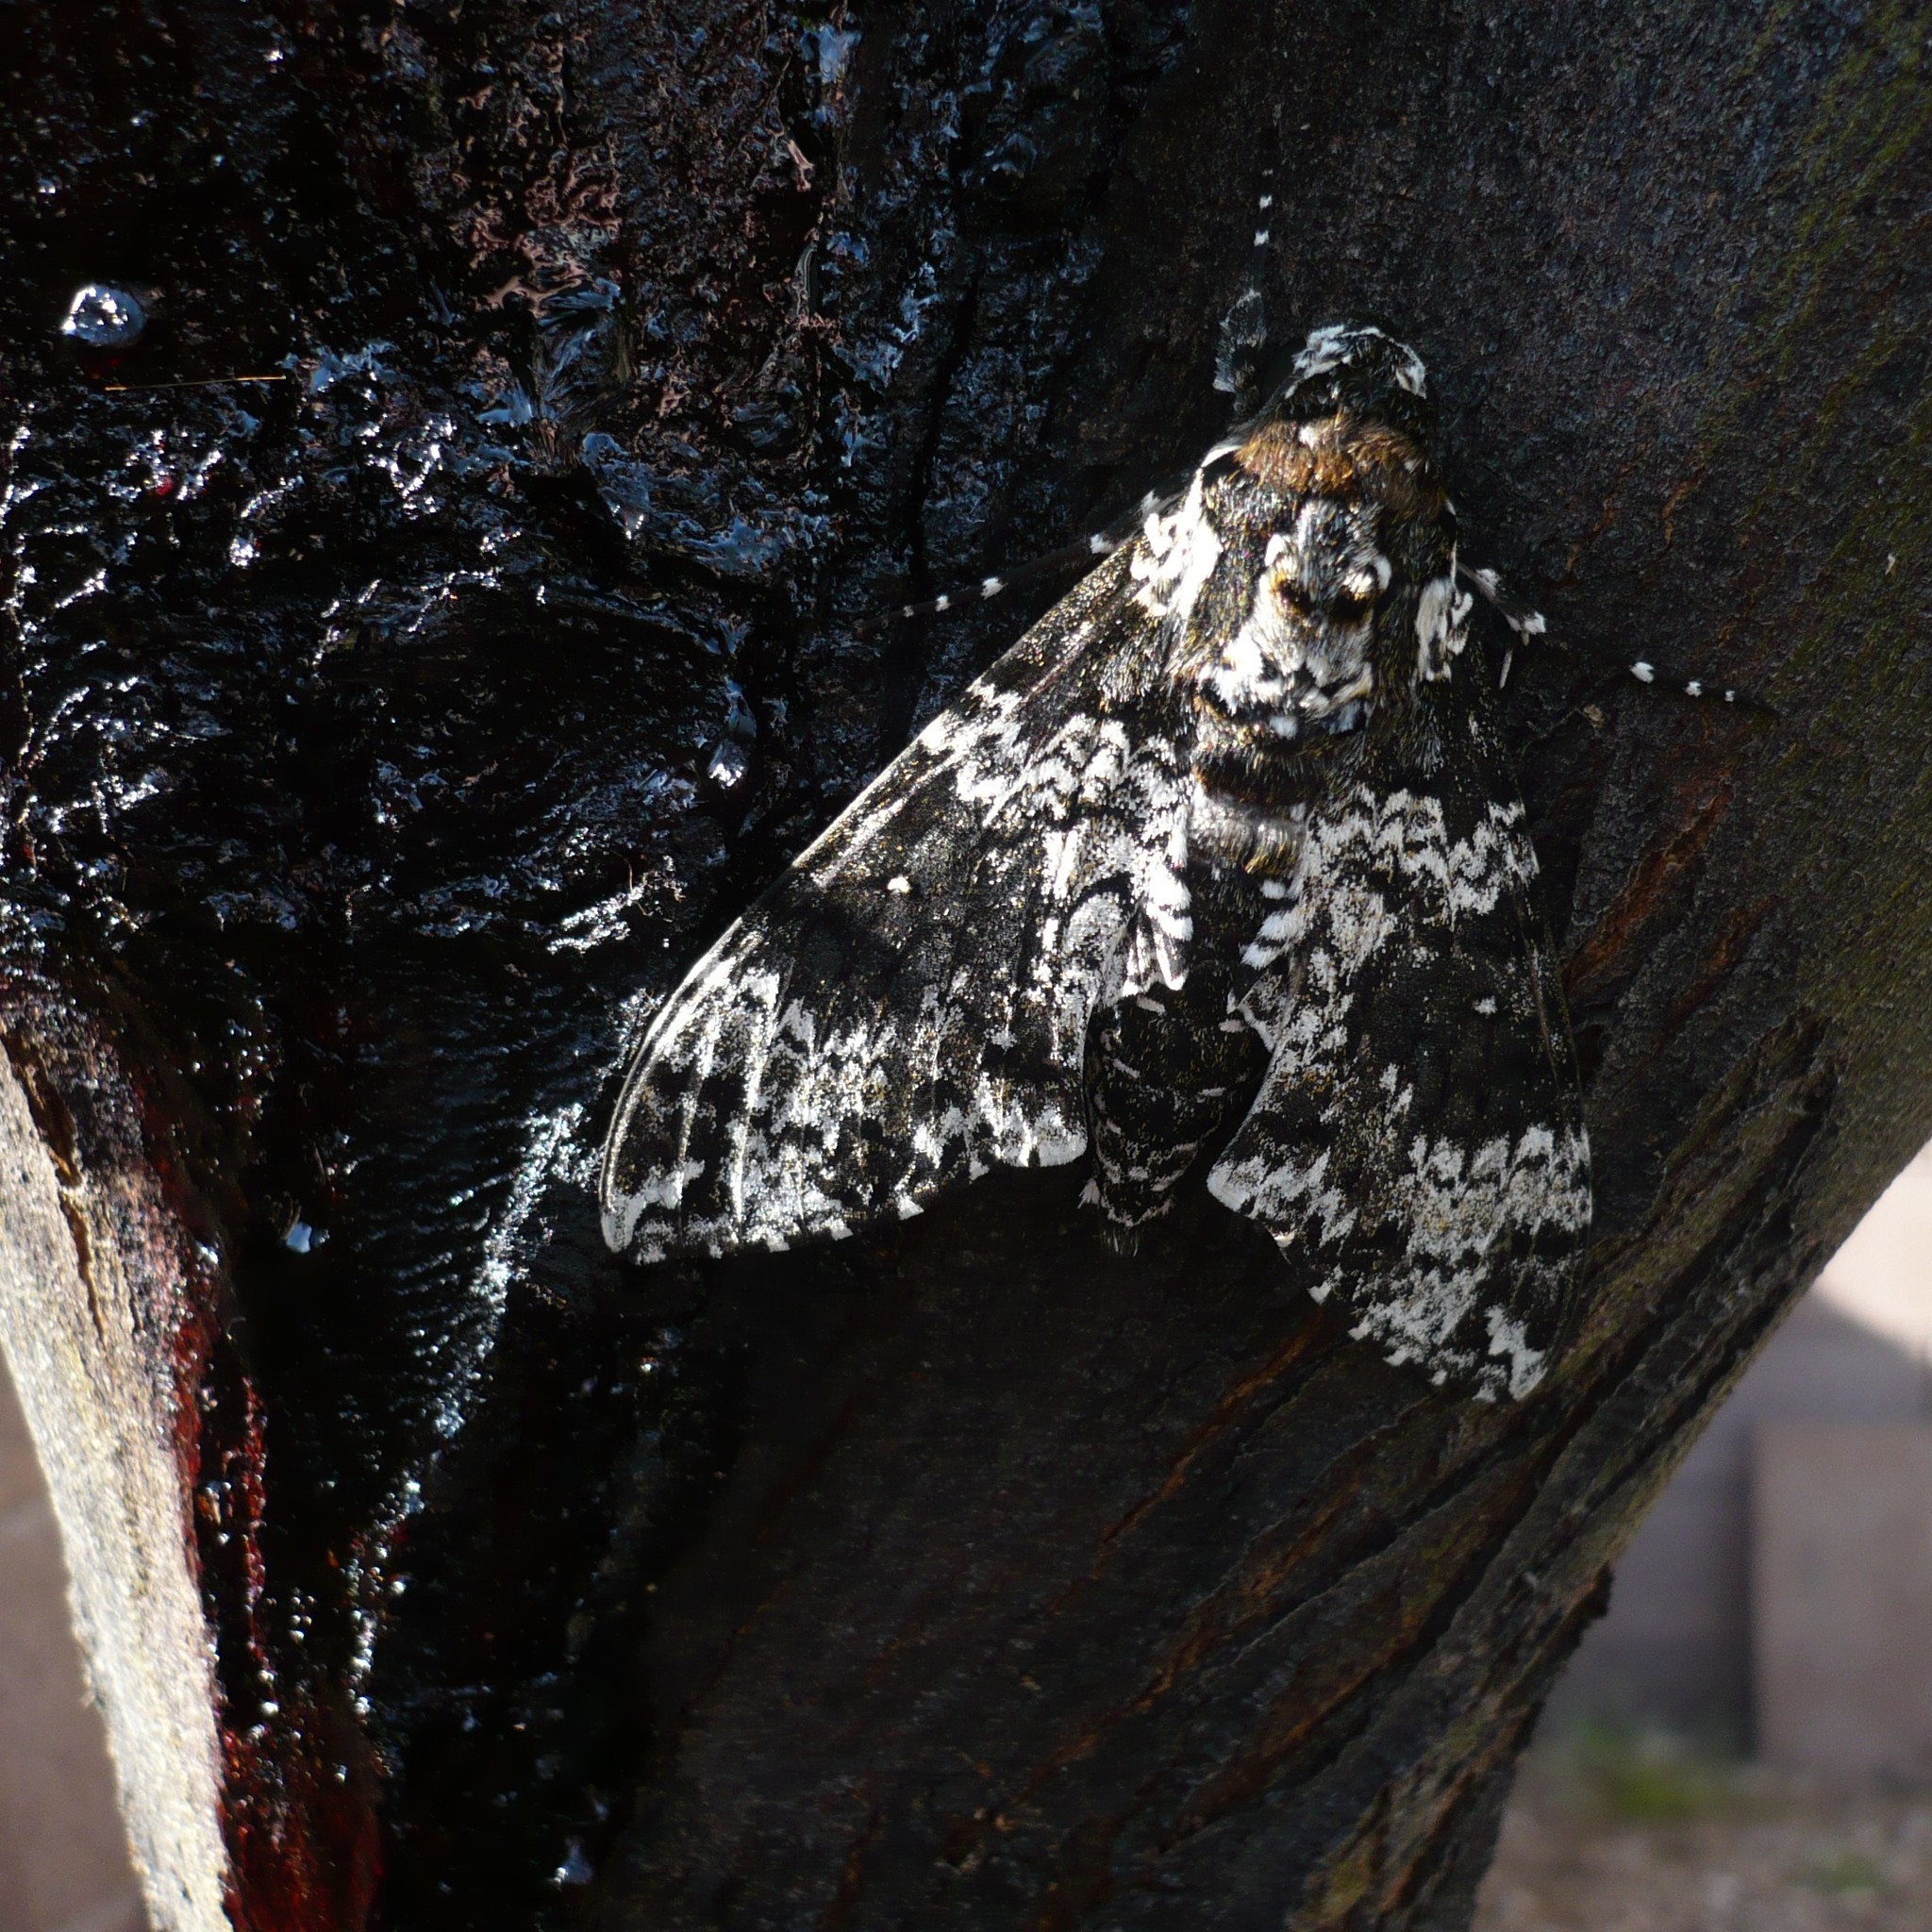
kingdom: Animalia
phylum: Arthropoda
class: Insecta
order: Lepidoptera
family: Sphingidae
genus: Manduca
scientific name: Manduca rustica
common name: Rustic sphinx
